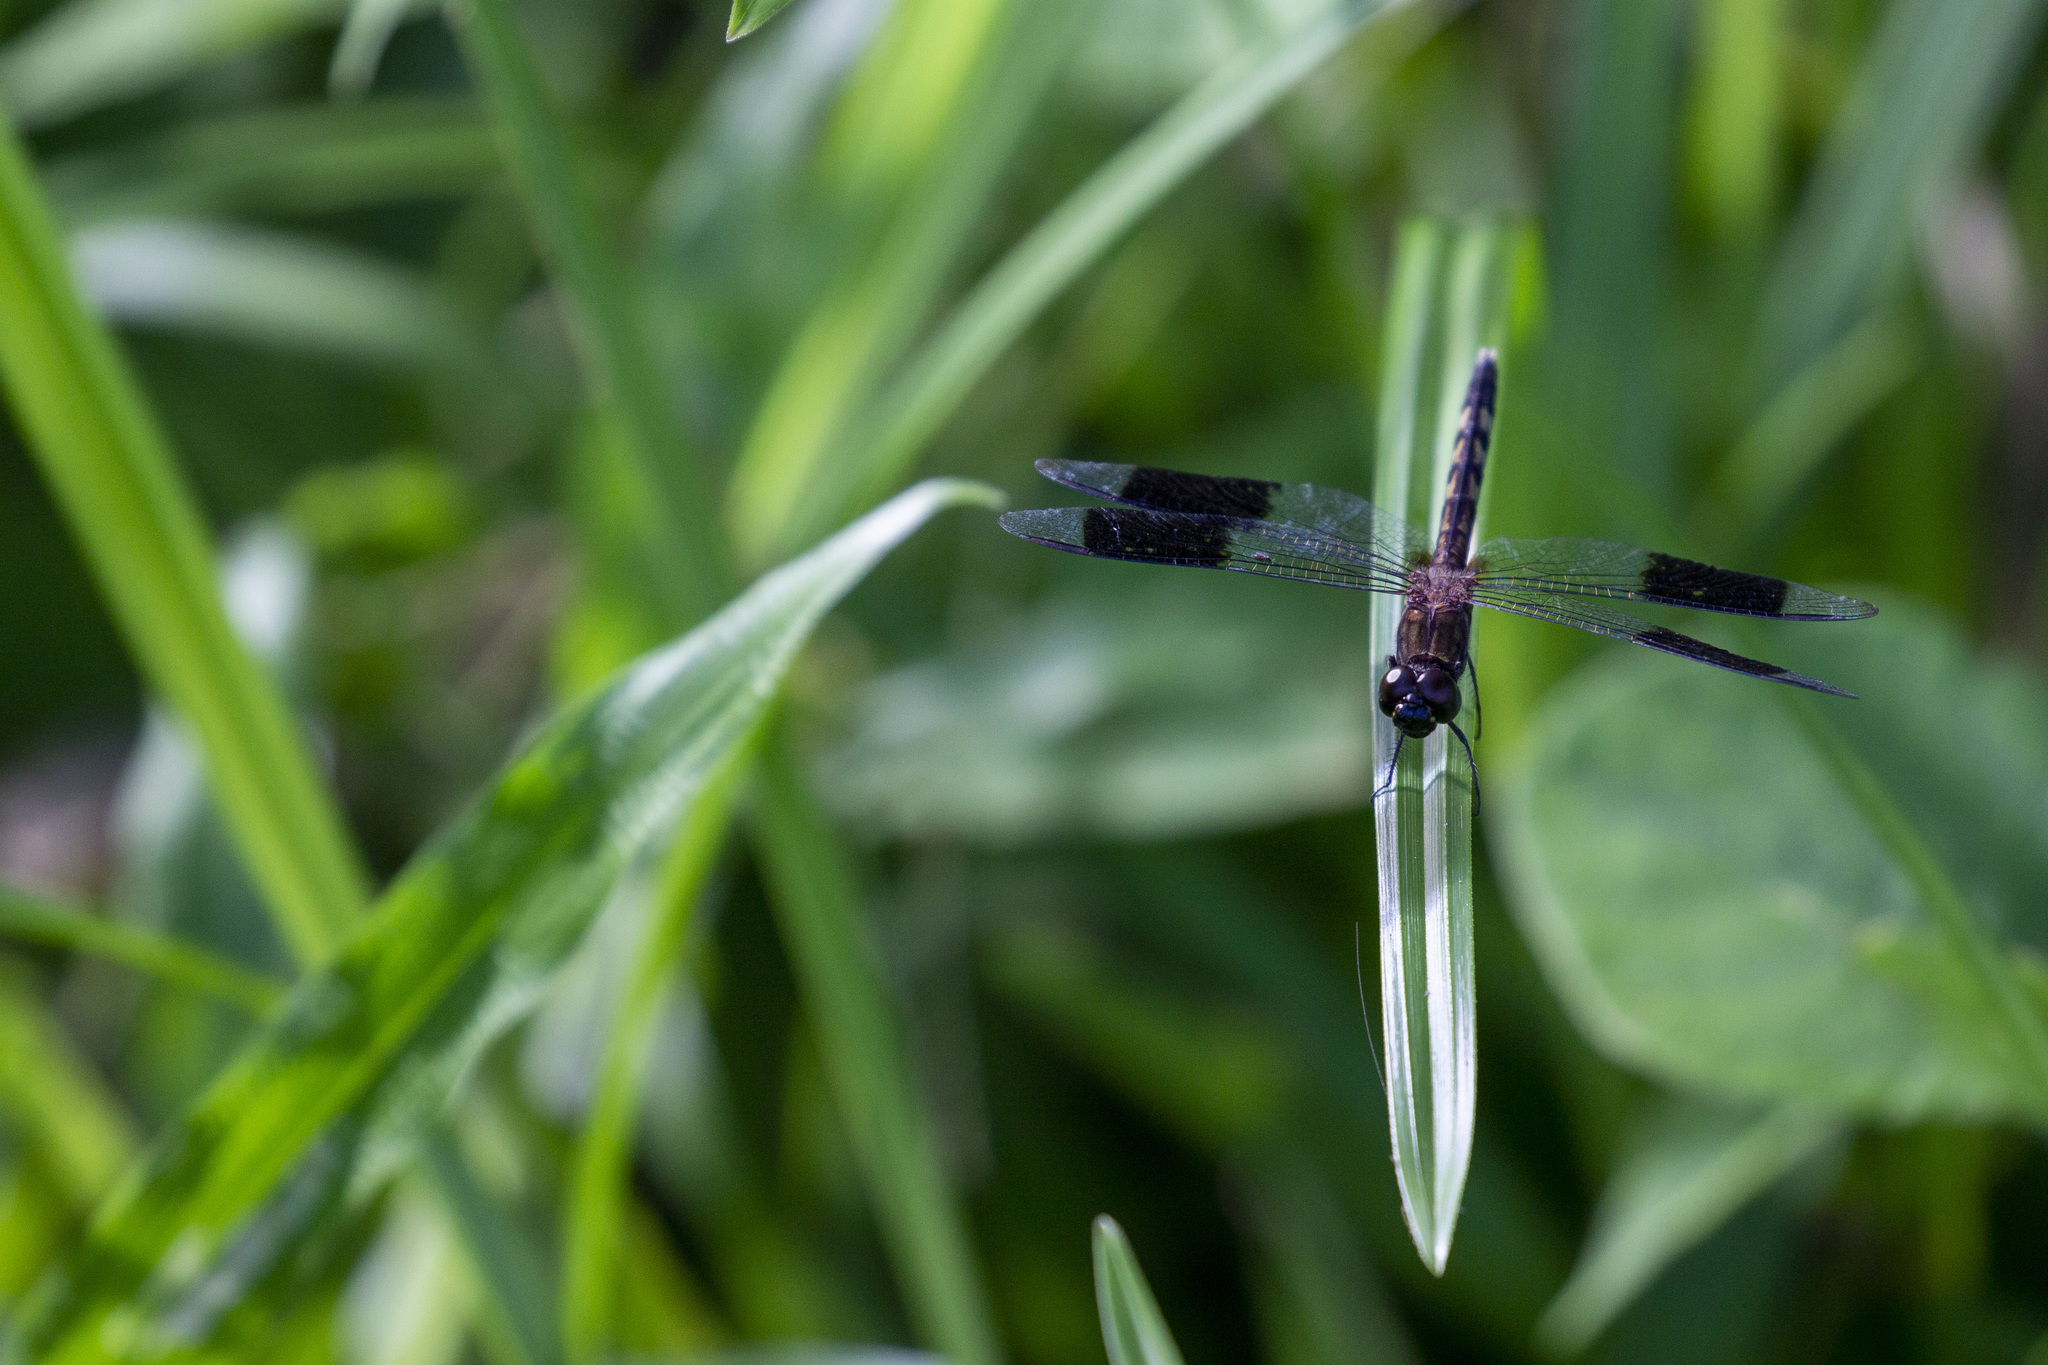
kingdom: Animalia
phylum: Arthropoda
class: Insecta
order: Odonata
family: Libellulidae
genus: Erythrodiplax
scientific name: Erythrodiplax umbrata
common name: Band-winged dragonlet
